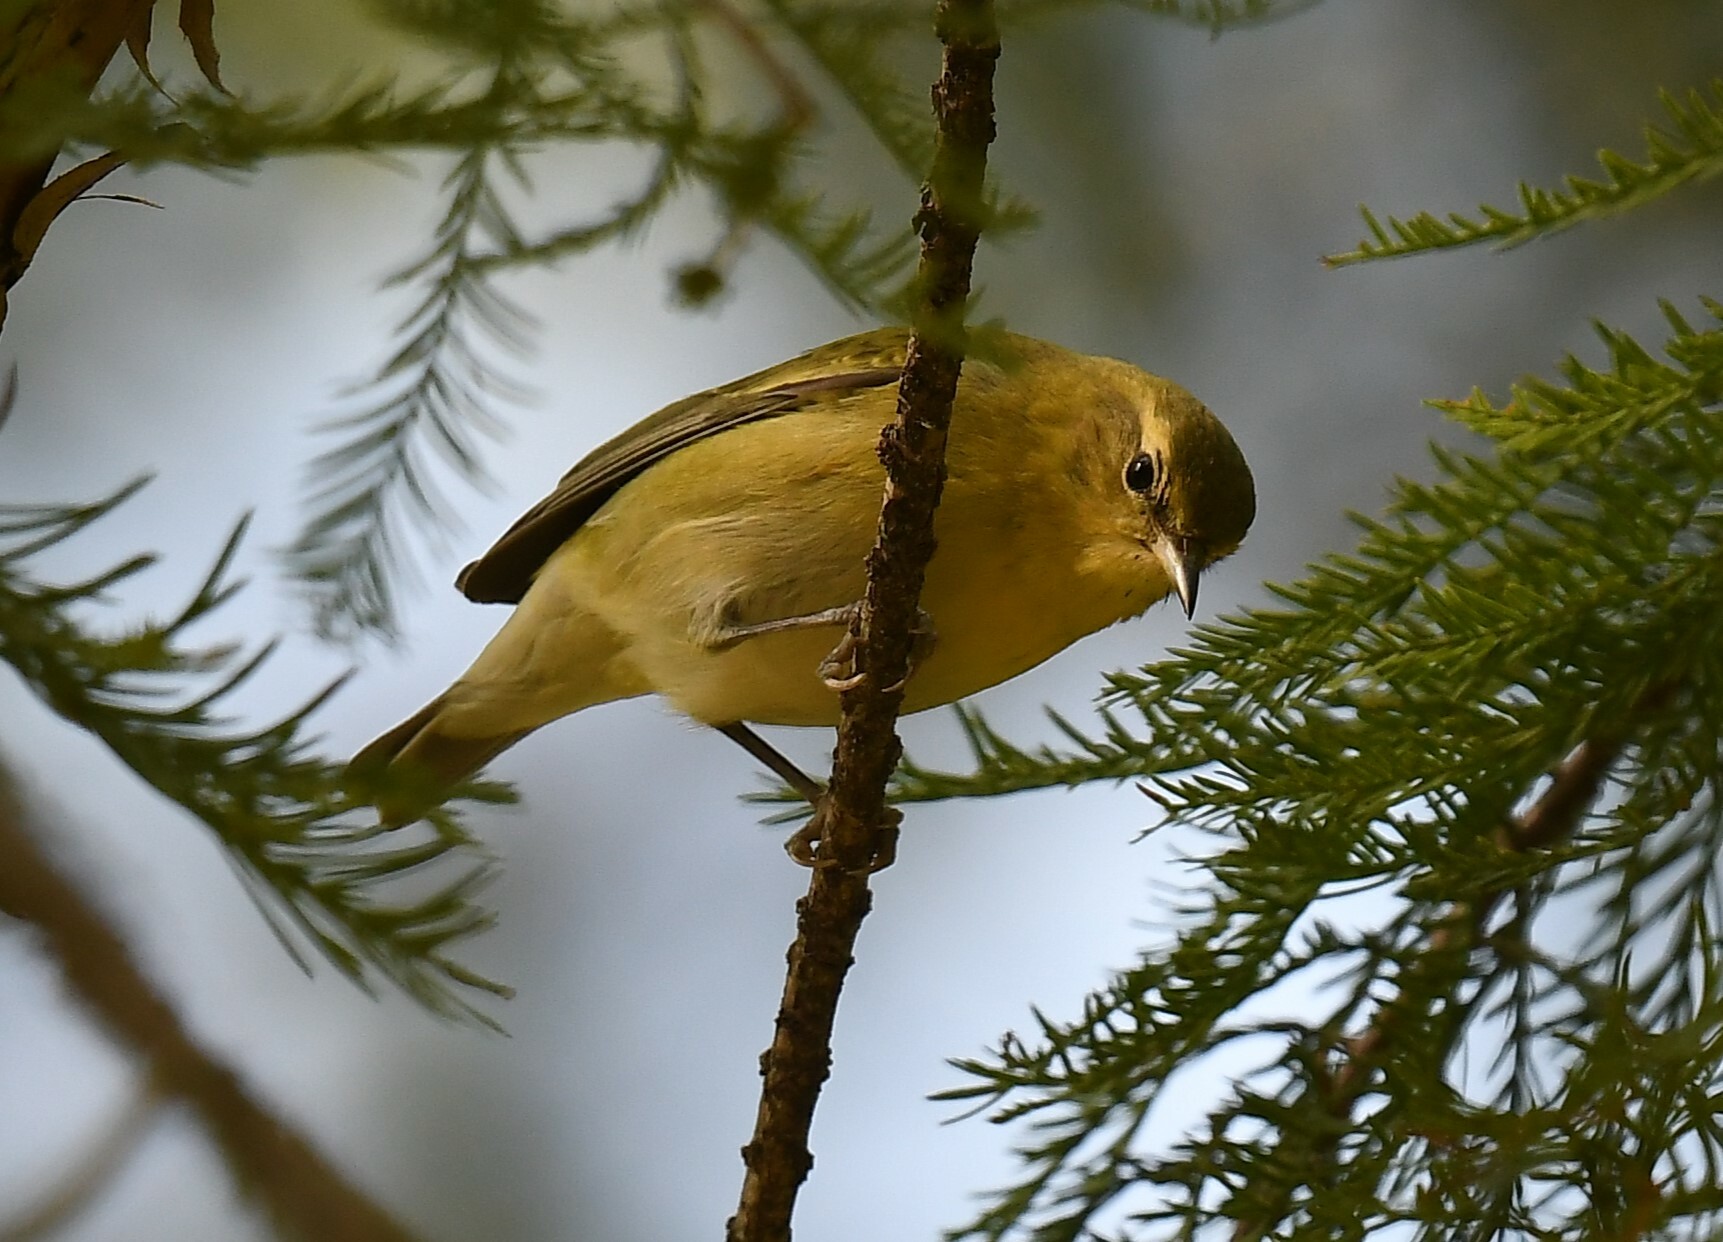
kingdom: Animalia
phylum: Chordata
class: Aves
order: Passeriformes
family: Parulidae
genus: Leiothlypis
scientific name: Leiothlypis peregrina
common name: Tennessee warbler
